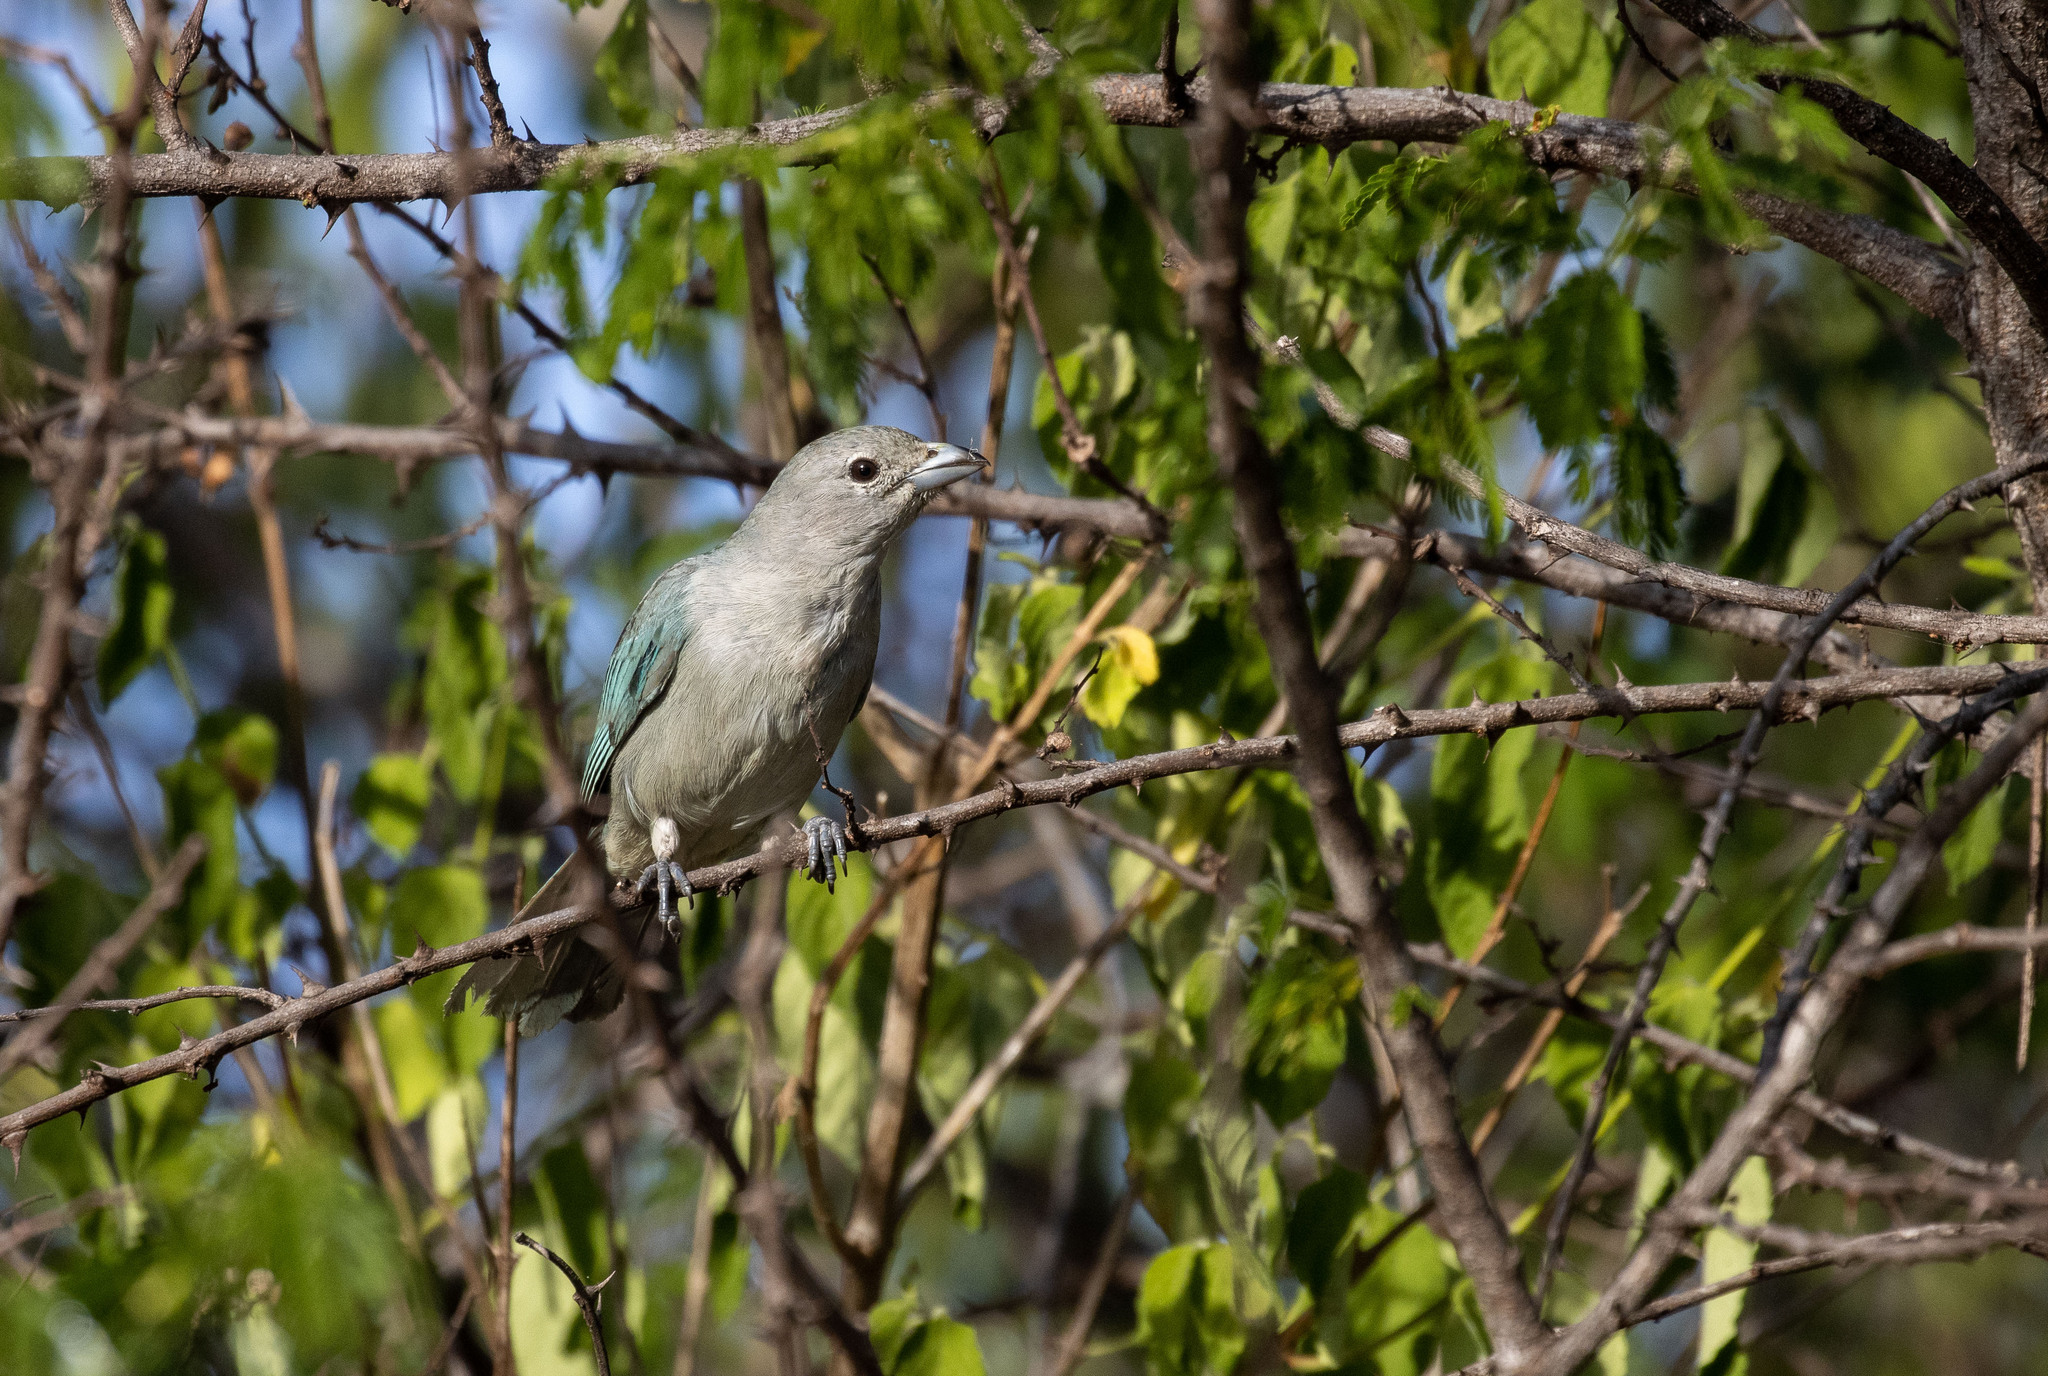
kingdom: Animalia
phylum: Chordata
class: Aves
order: Passeriformes
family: Thraupidae
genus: Thraupis
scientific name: Thraupis sayaca
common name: Sayaca tanager
